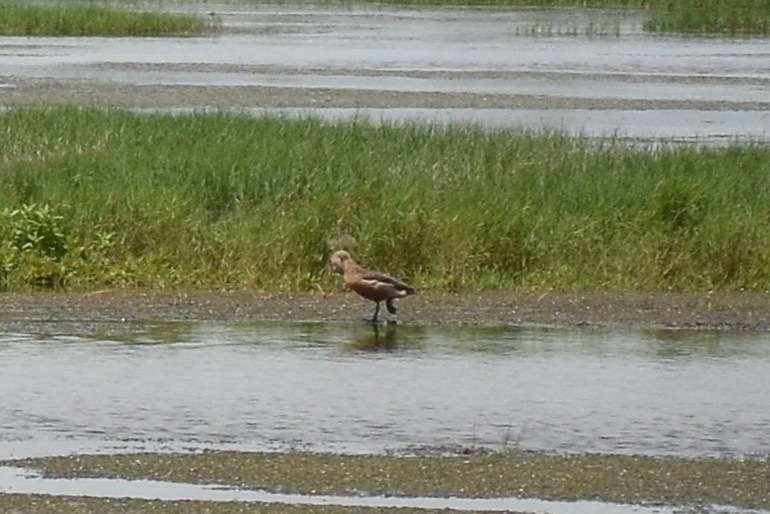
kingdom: Animalia
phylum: Chordata
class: Aves
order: Anseriformes
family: Anatidae
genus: Dendrocygna
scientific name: Dendrocygna javanica
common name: Lesser whistling-duck
